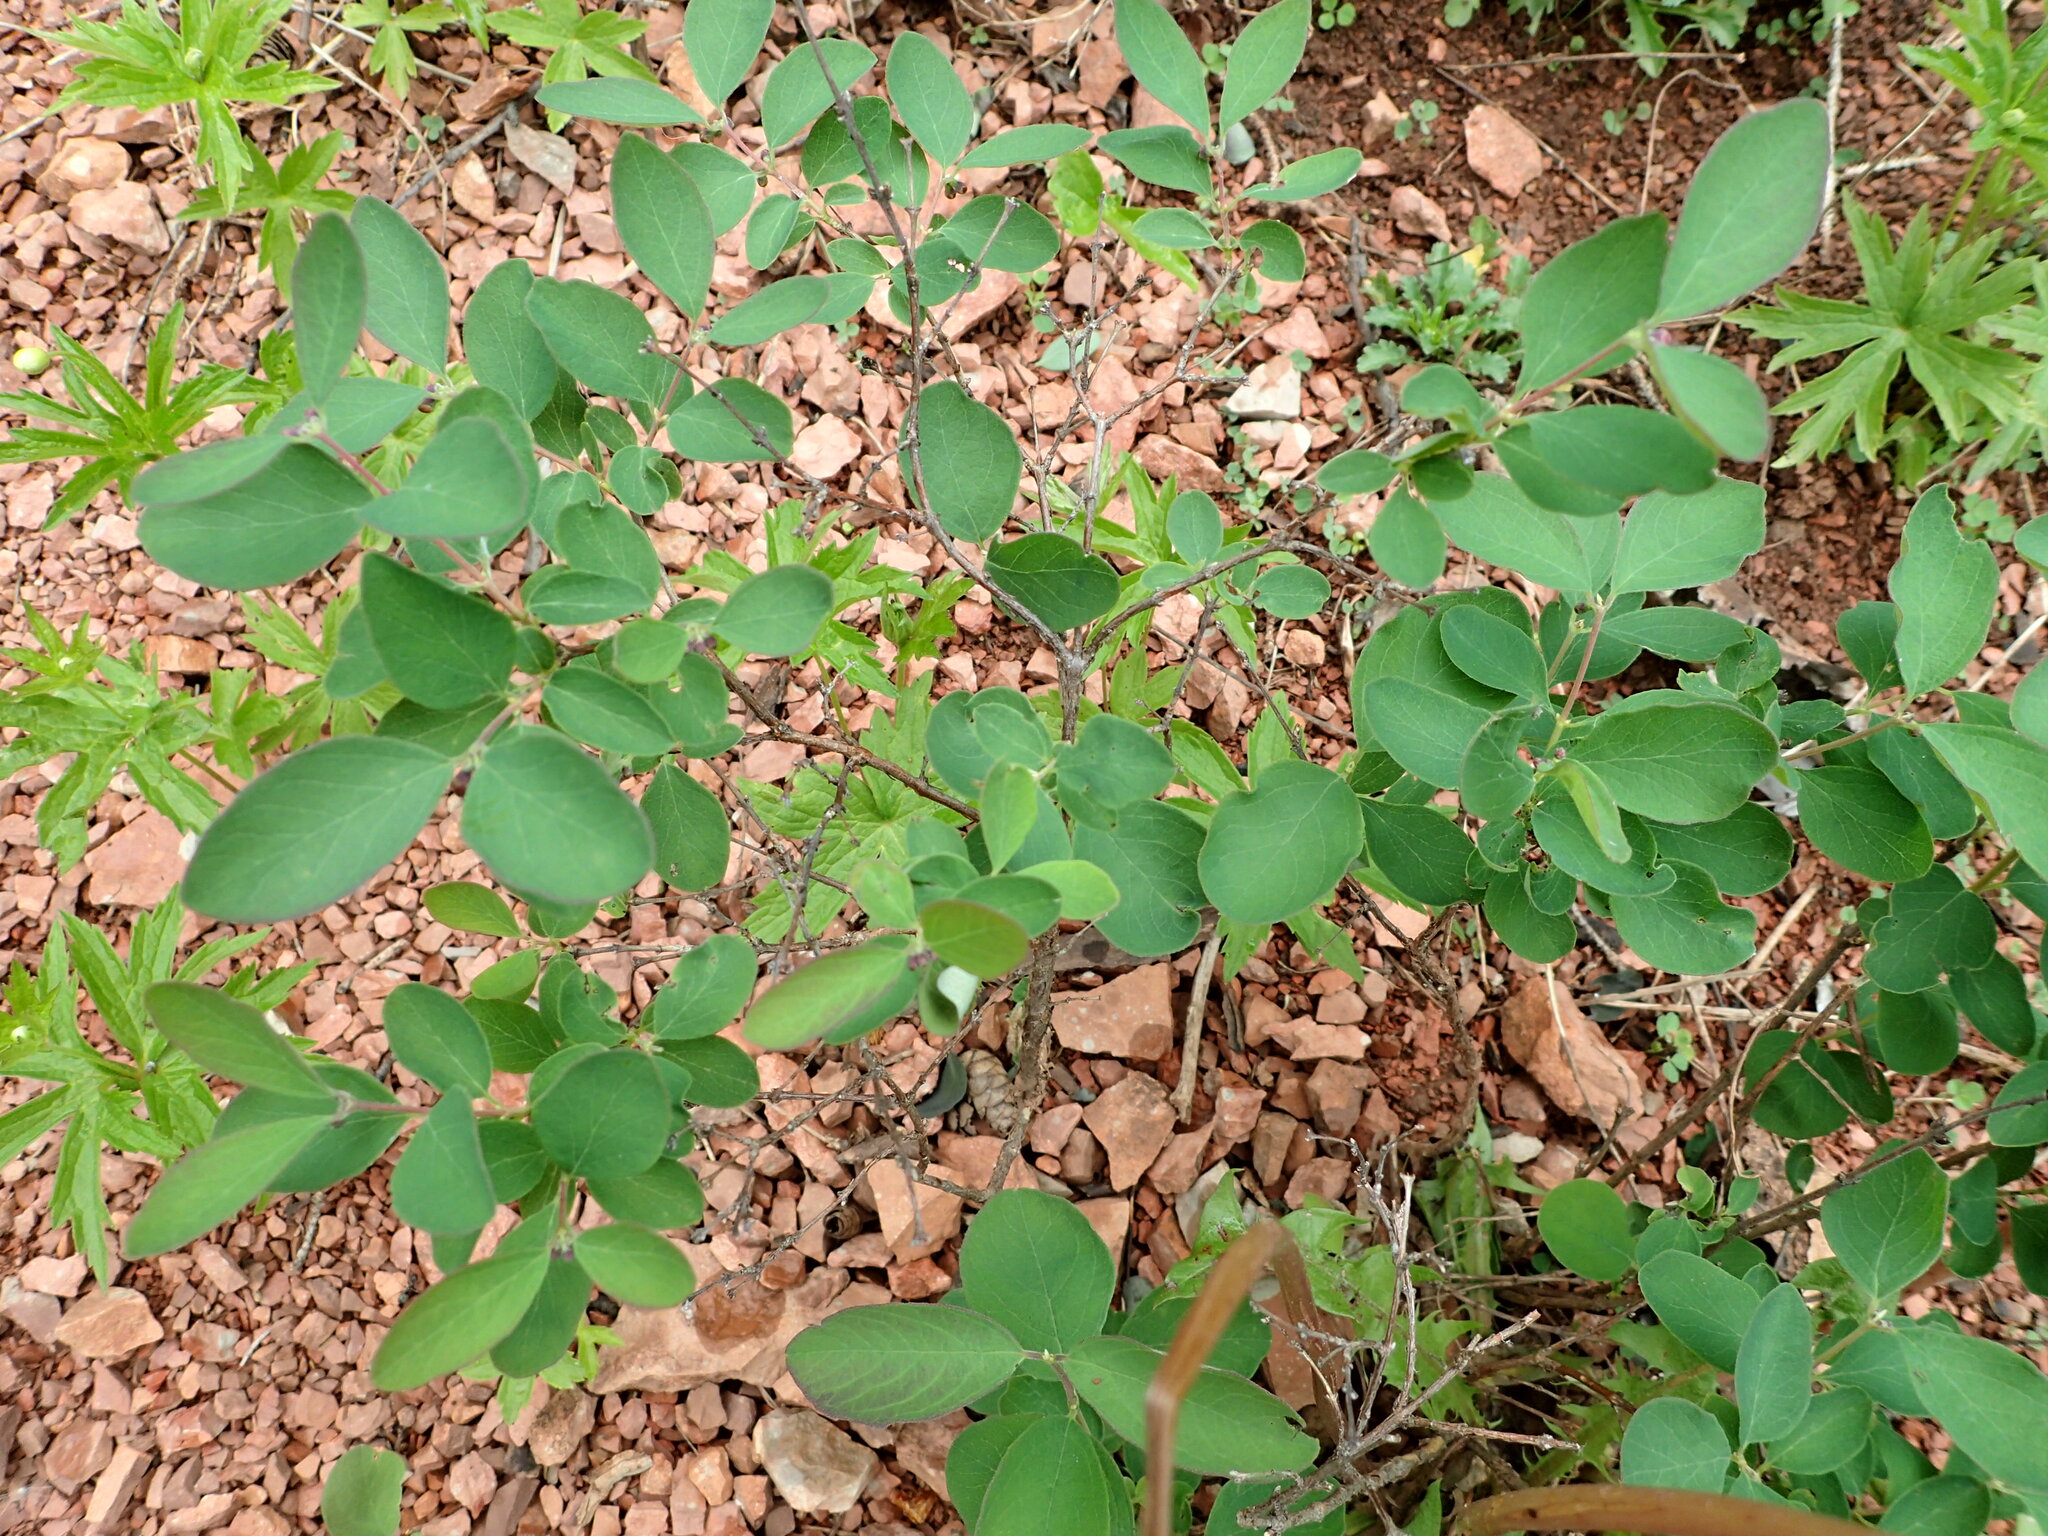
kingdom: Plantae
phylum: Tracheophyta
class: Magnoliopsida
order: Dipsacales
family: Caprifoliaceae
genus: Symphoricarpos
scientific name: Symphoricarpos albus
